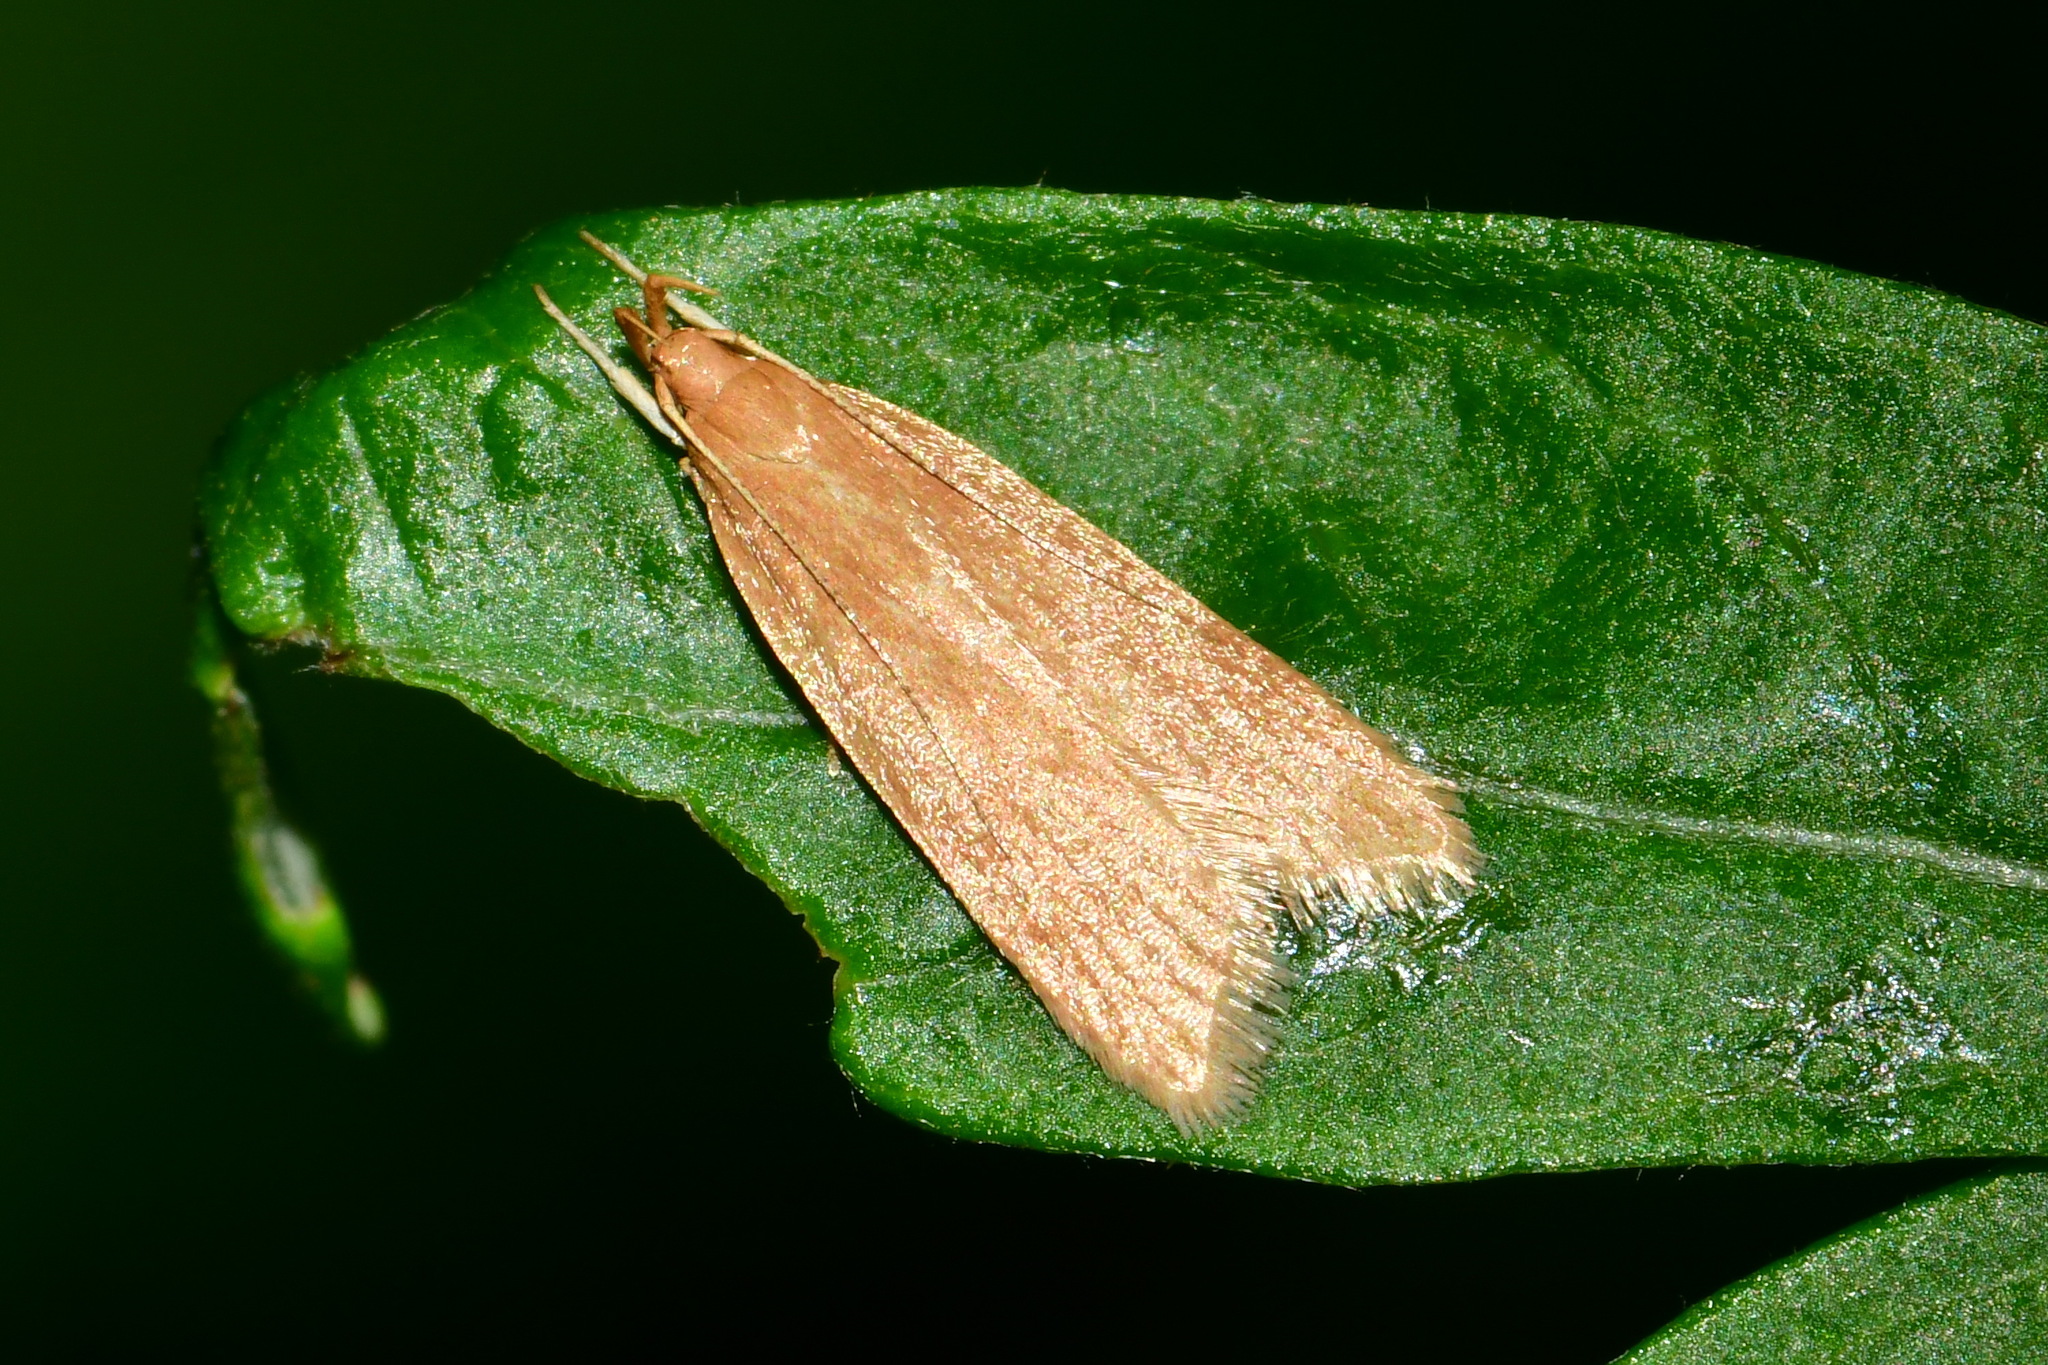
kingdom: Animalia
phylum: Arthropoda
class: Insecta
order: Lepidoptera
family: Gelechiidae
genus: Helcystogramma
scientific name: Helcystogramma rufescens
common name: Orange crest
